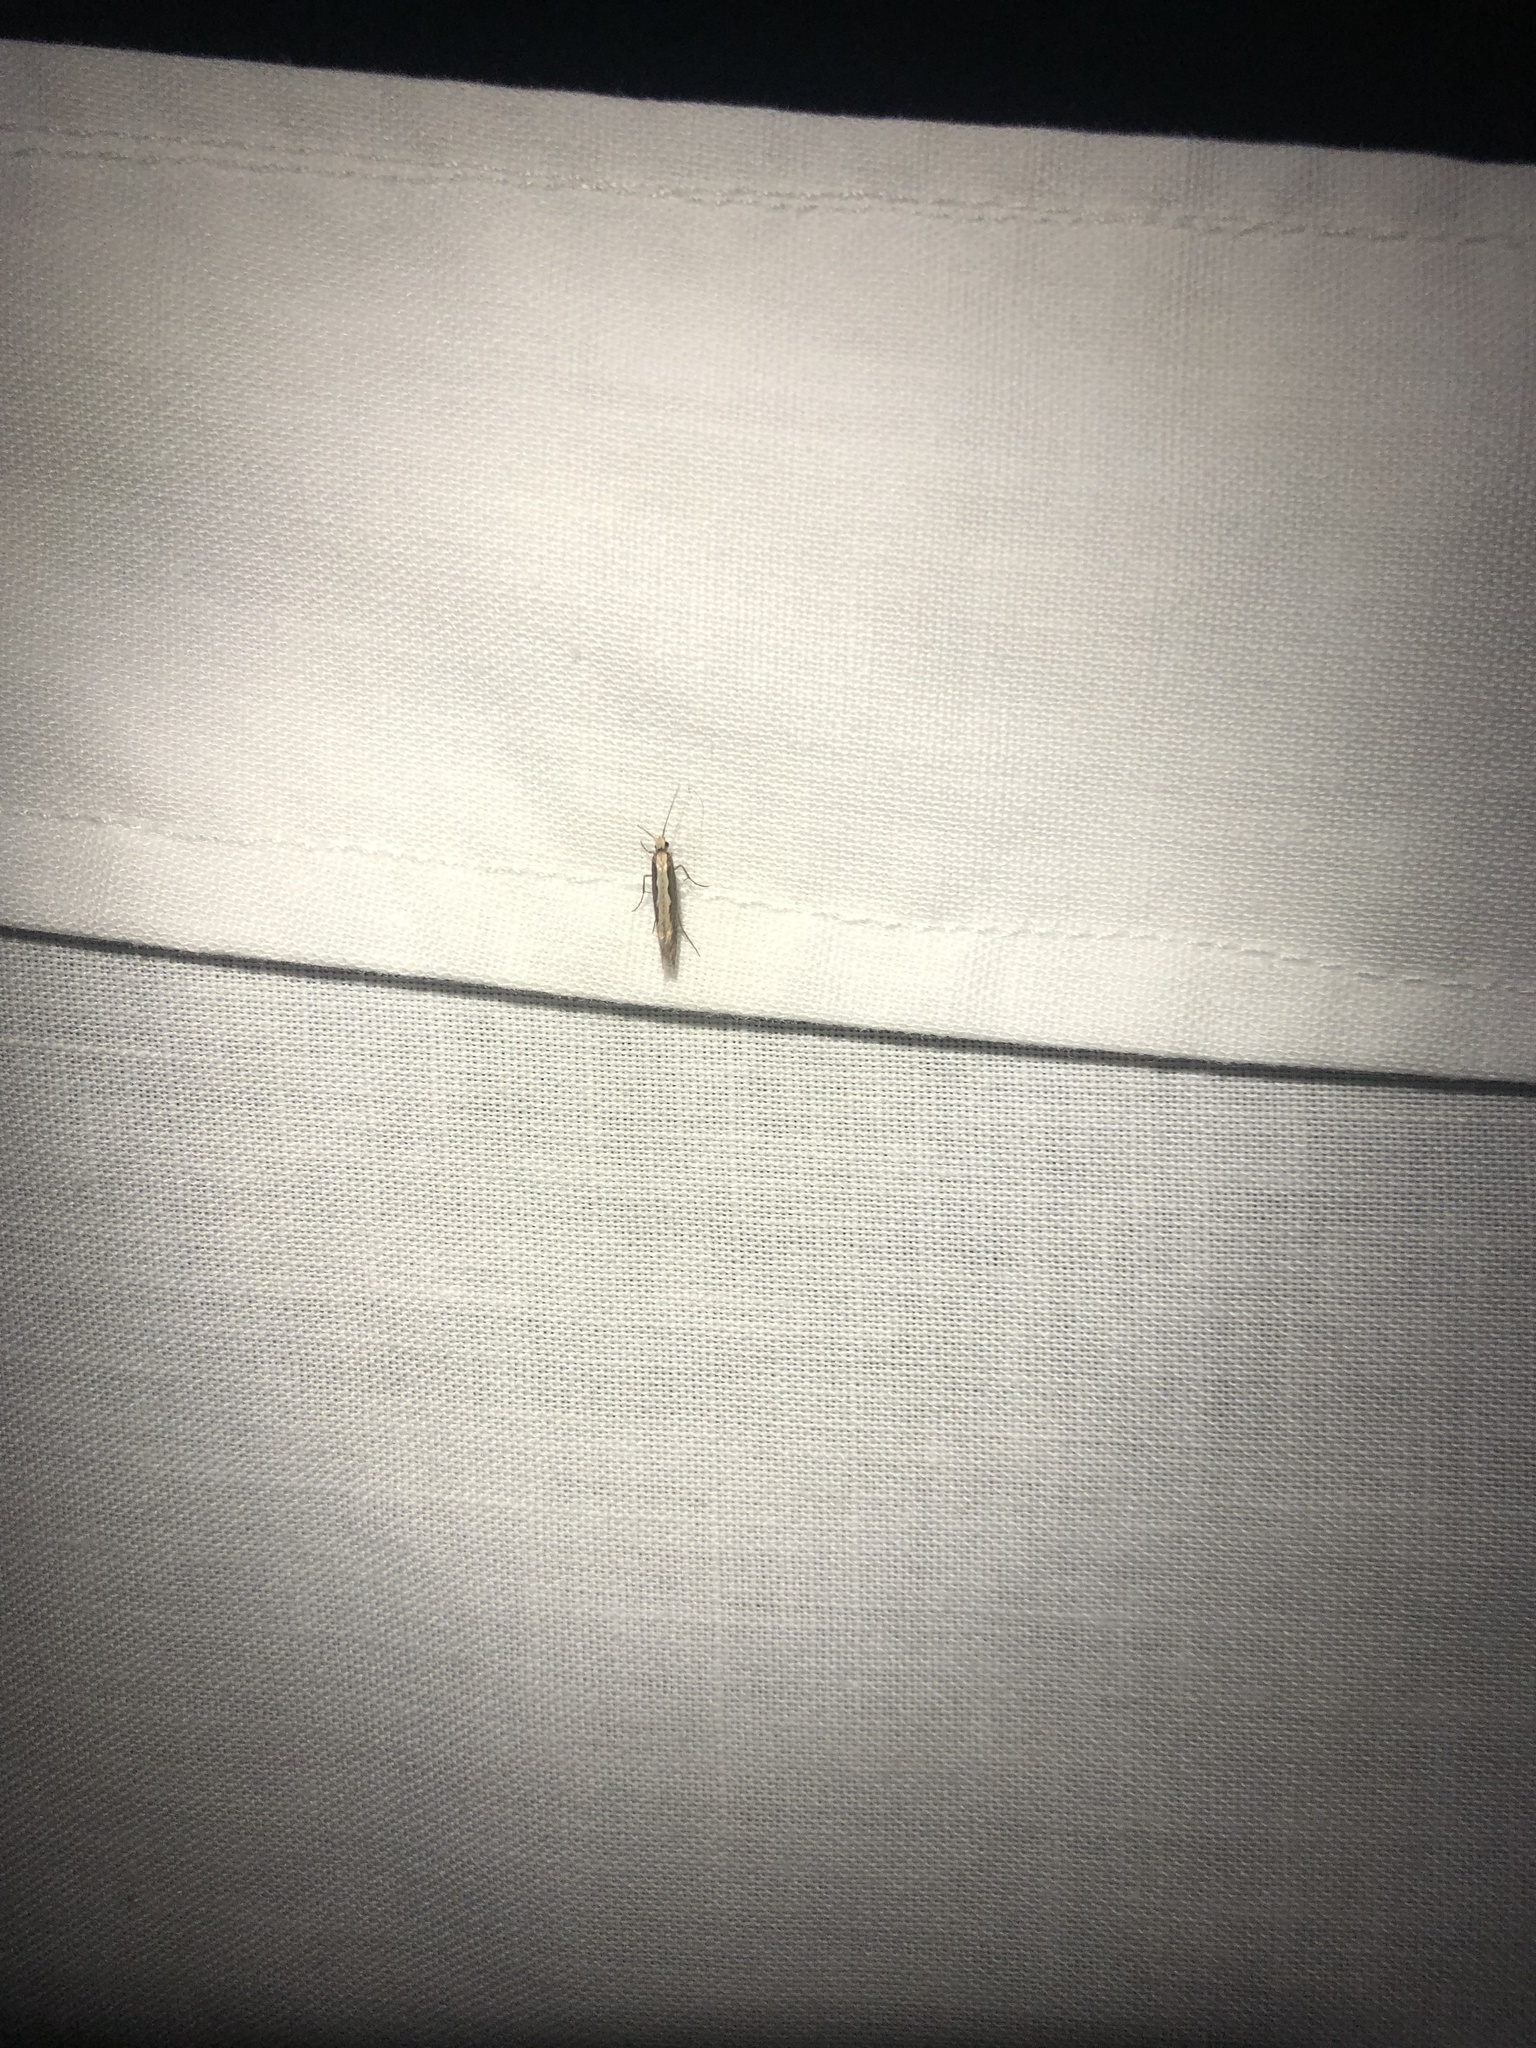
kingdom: Animalia
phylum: Arthropoda
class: Insecta
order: Lepidoptera
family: Plutellidae
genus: Plutella
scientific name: Plutella xylostella
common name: Diamond-back moth
